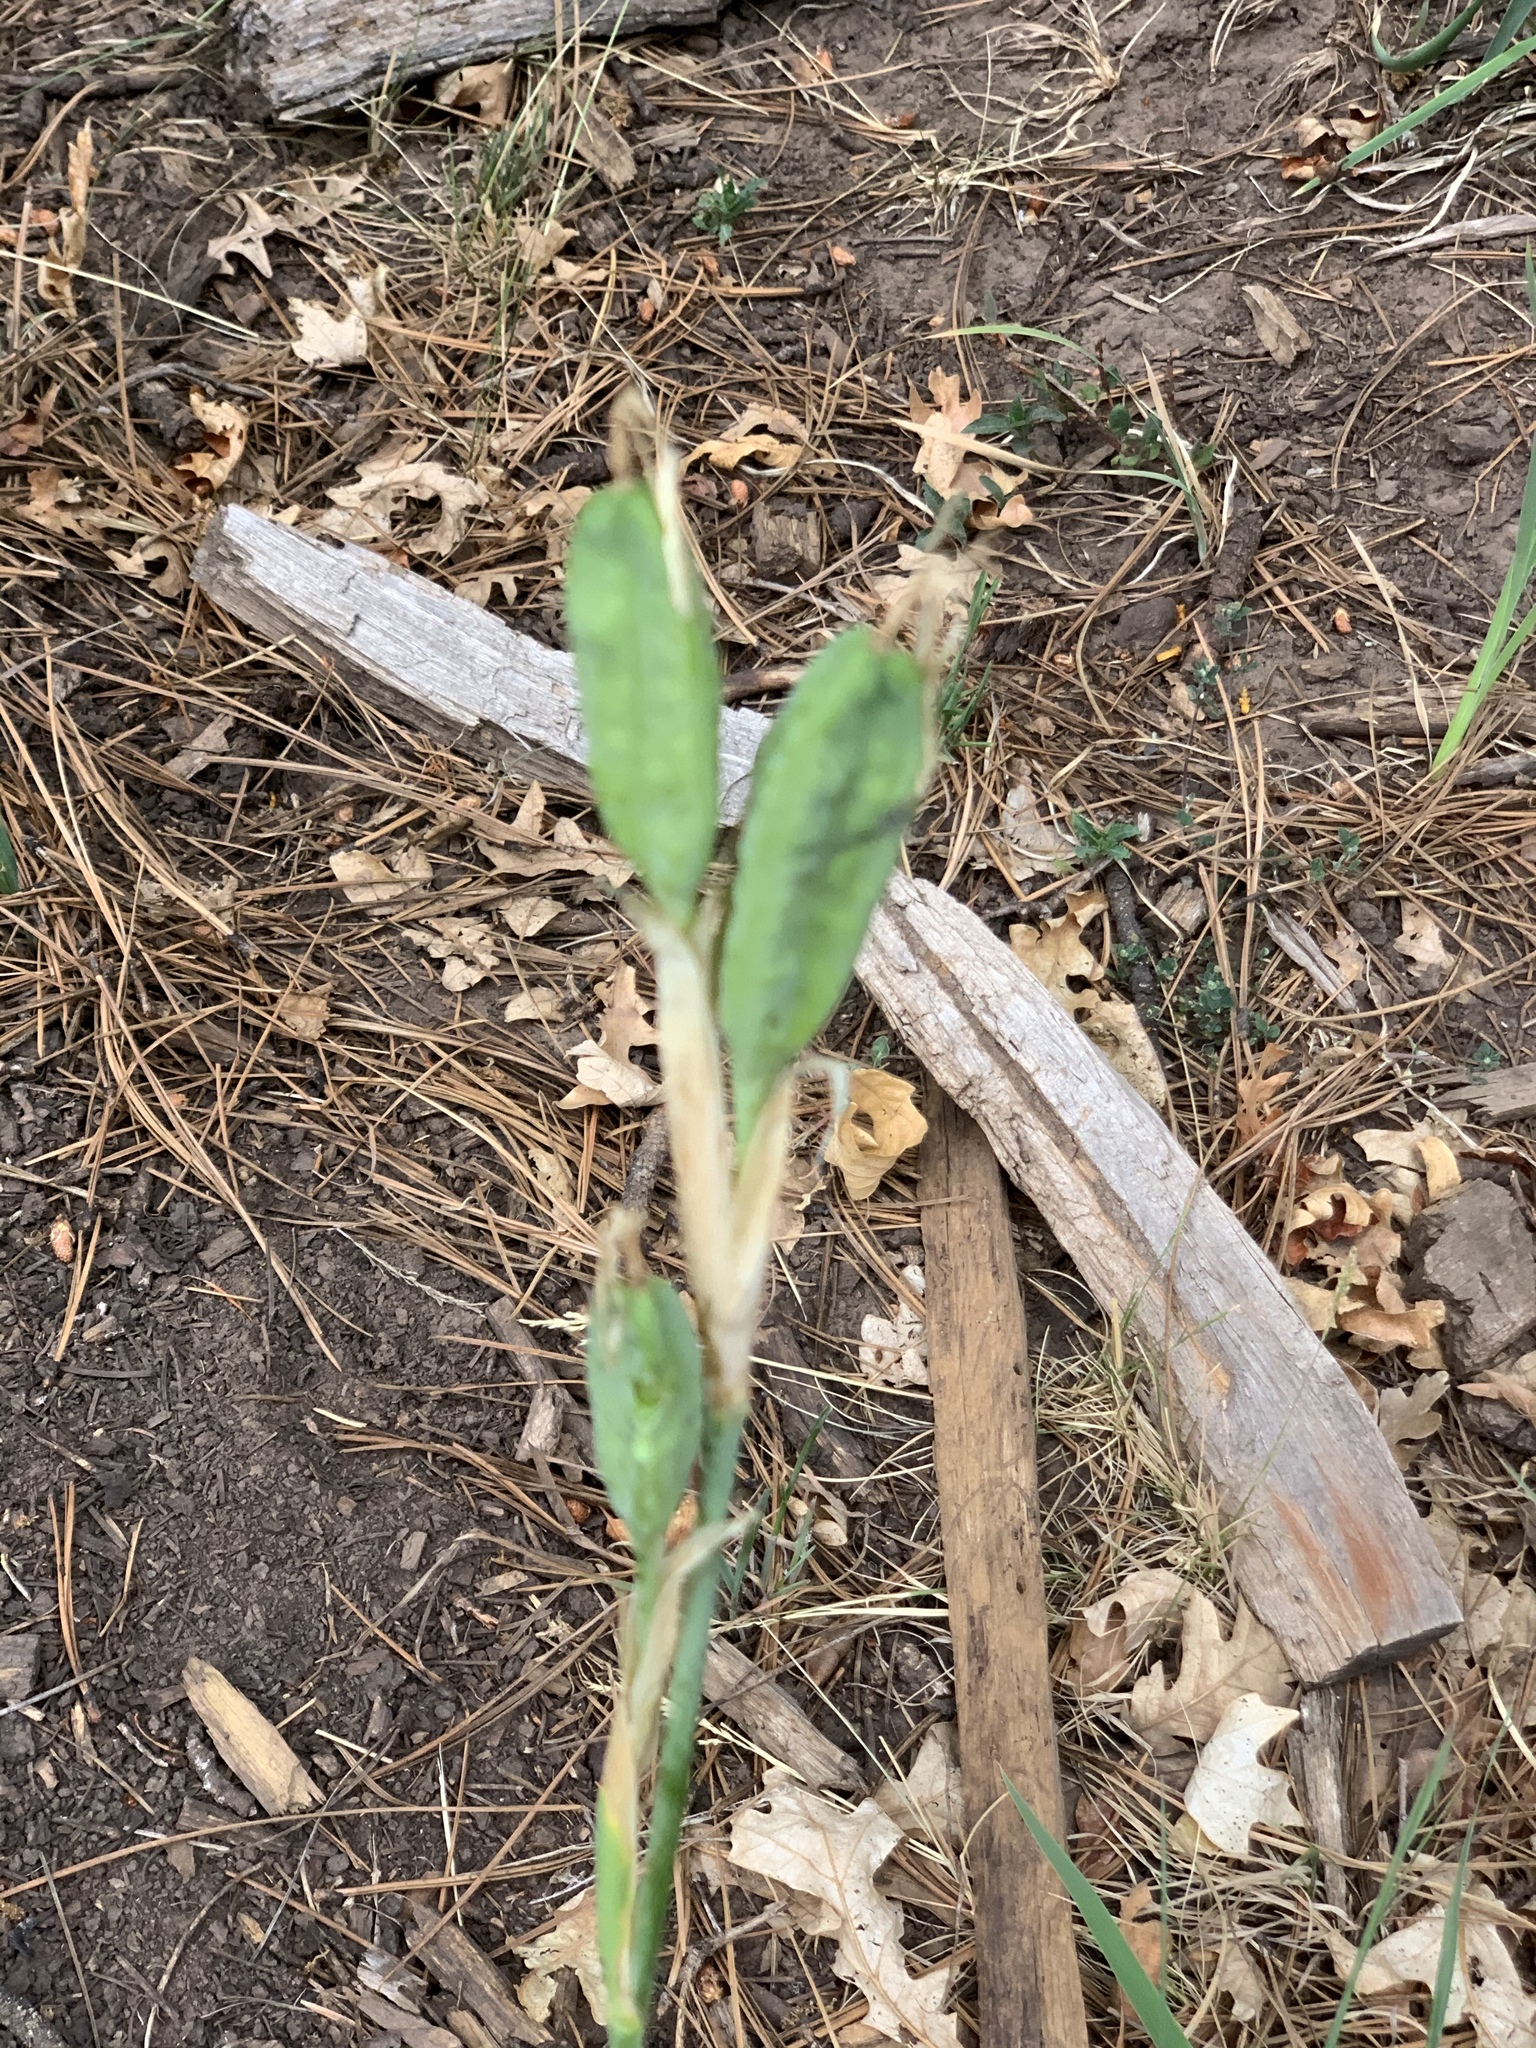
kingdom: Plantae
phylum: Tracheophyta
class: Liliopsida
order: Asparagales
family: Iridaceae
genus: Iris
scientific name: Iris missouriensis
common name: Rocky mountain iris
